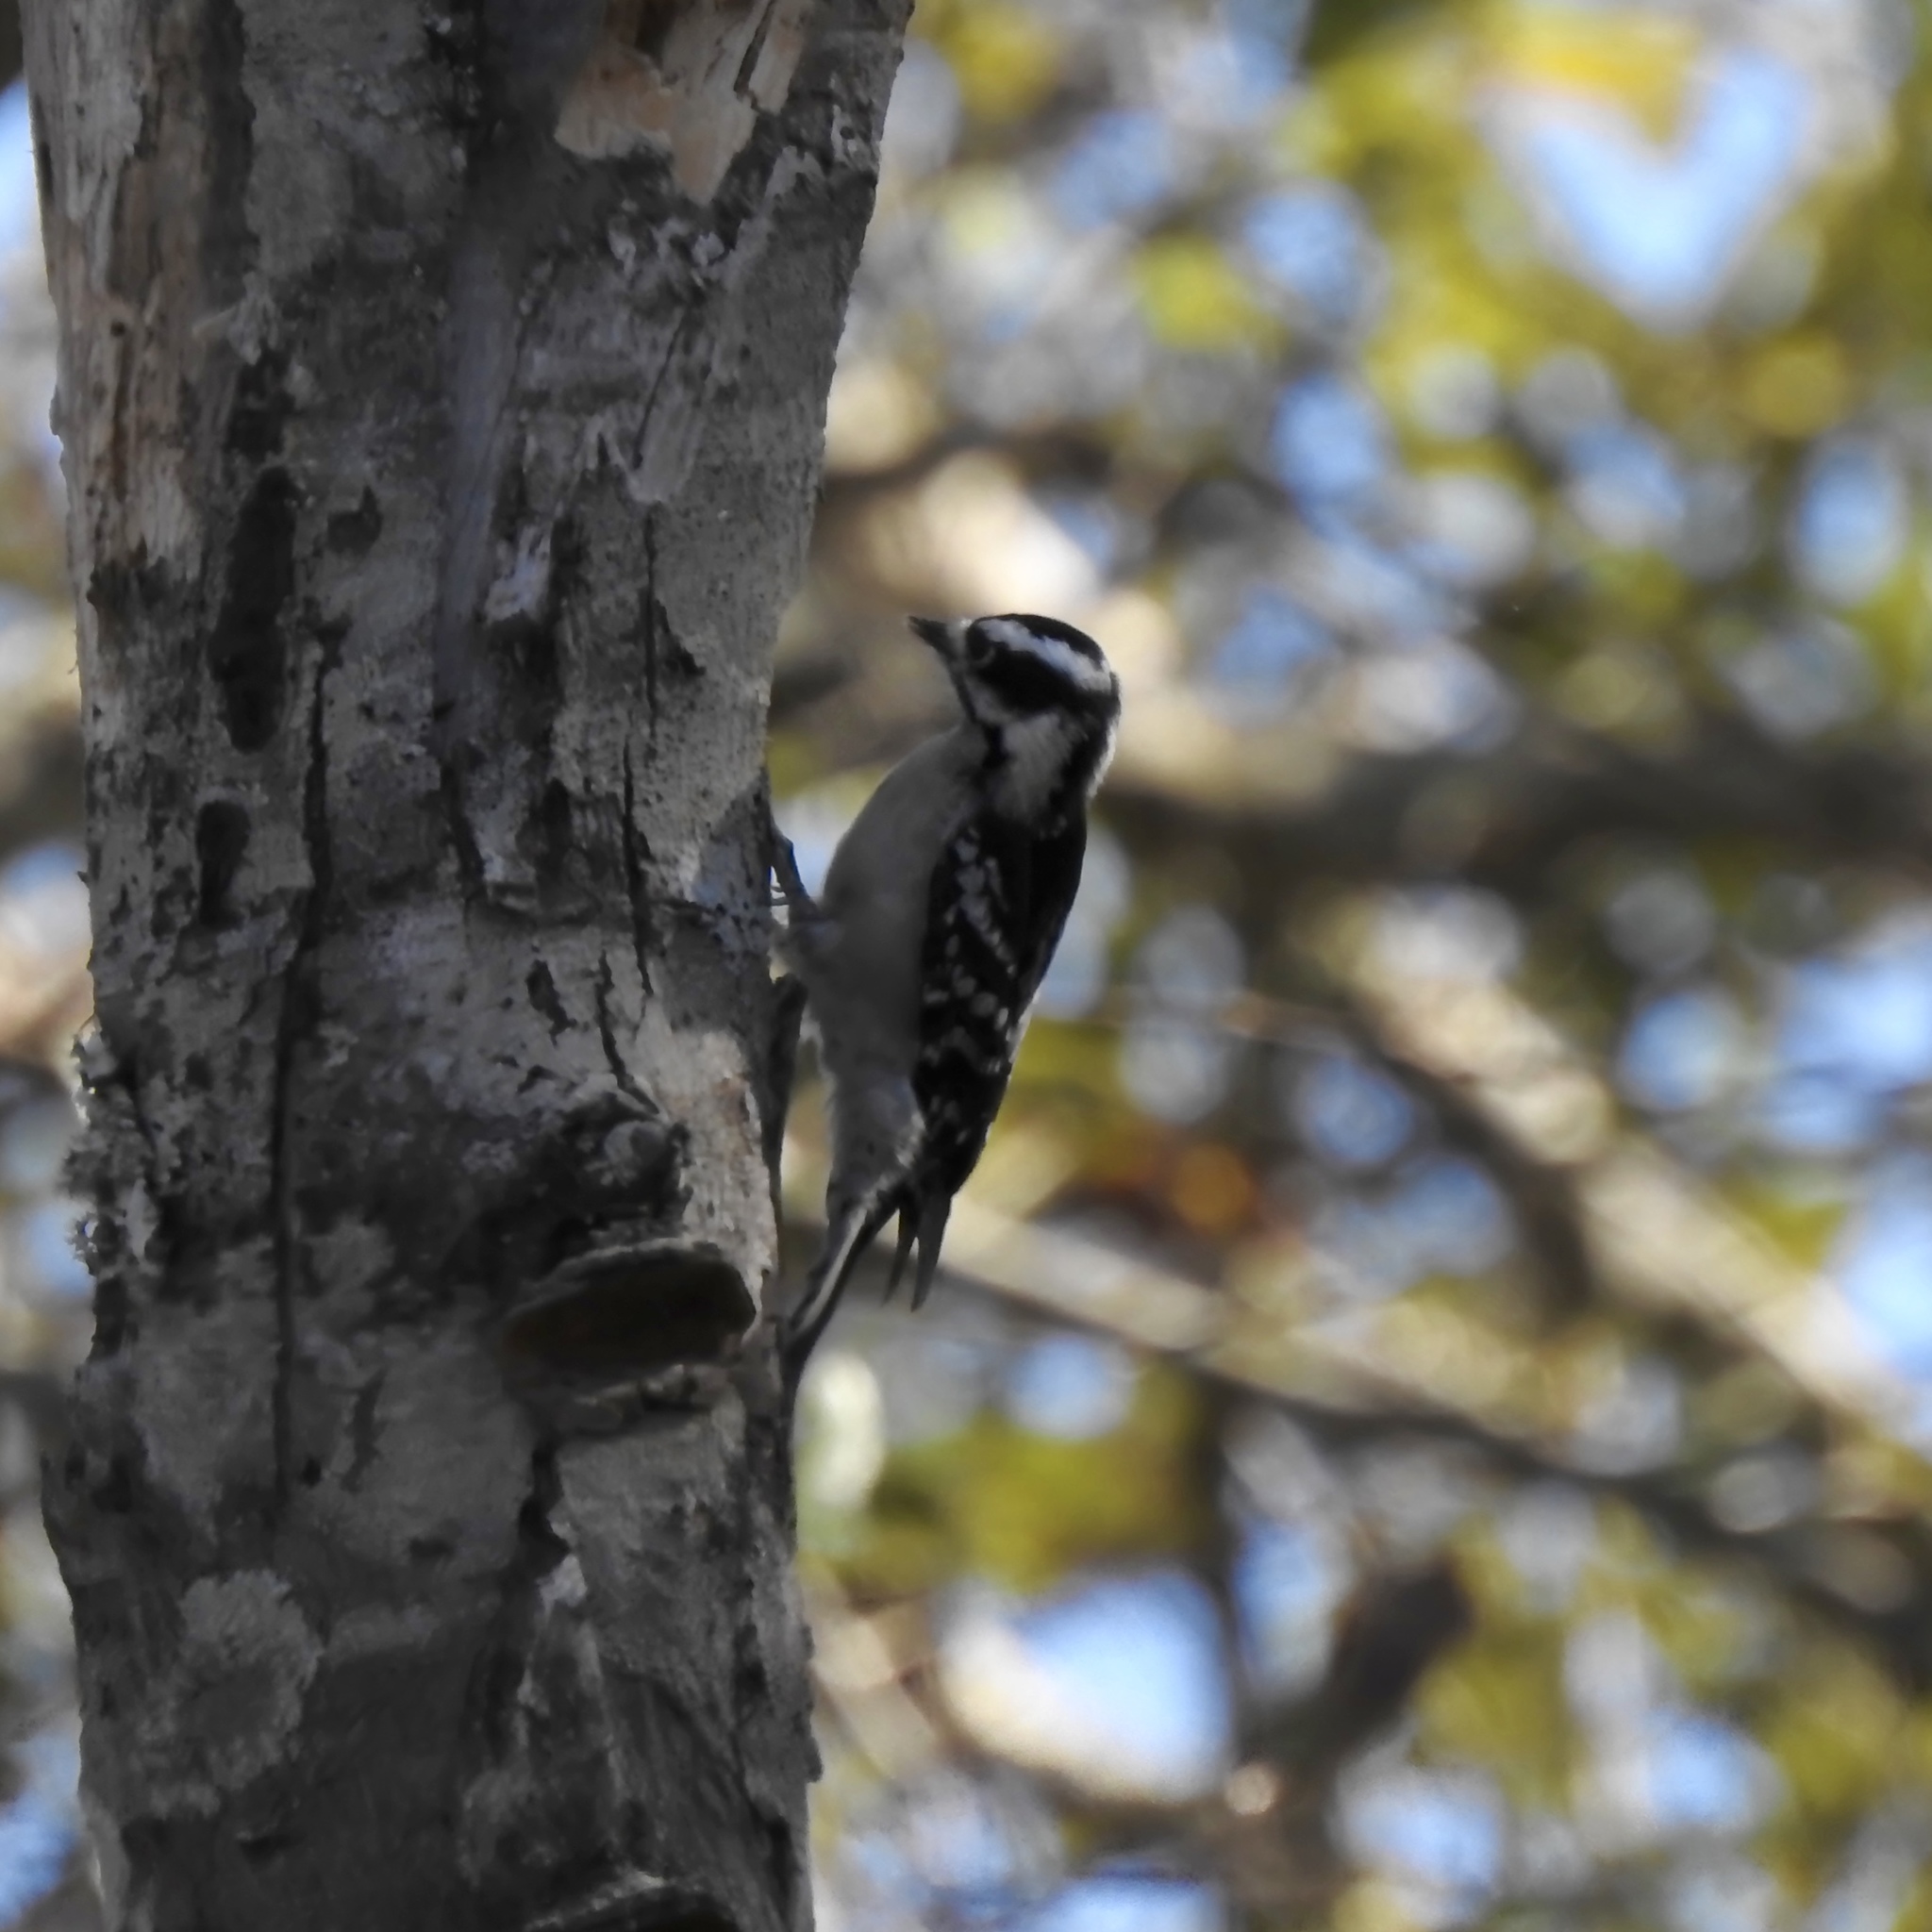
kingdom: Animalia
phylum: Chordata
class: Aves
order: Piciformes
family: Picidae
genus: Dryobates
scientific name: Dryobates pubescens
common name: Downy woodpecker
